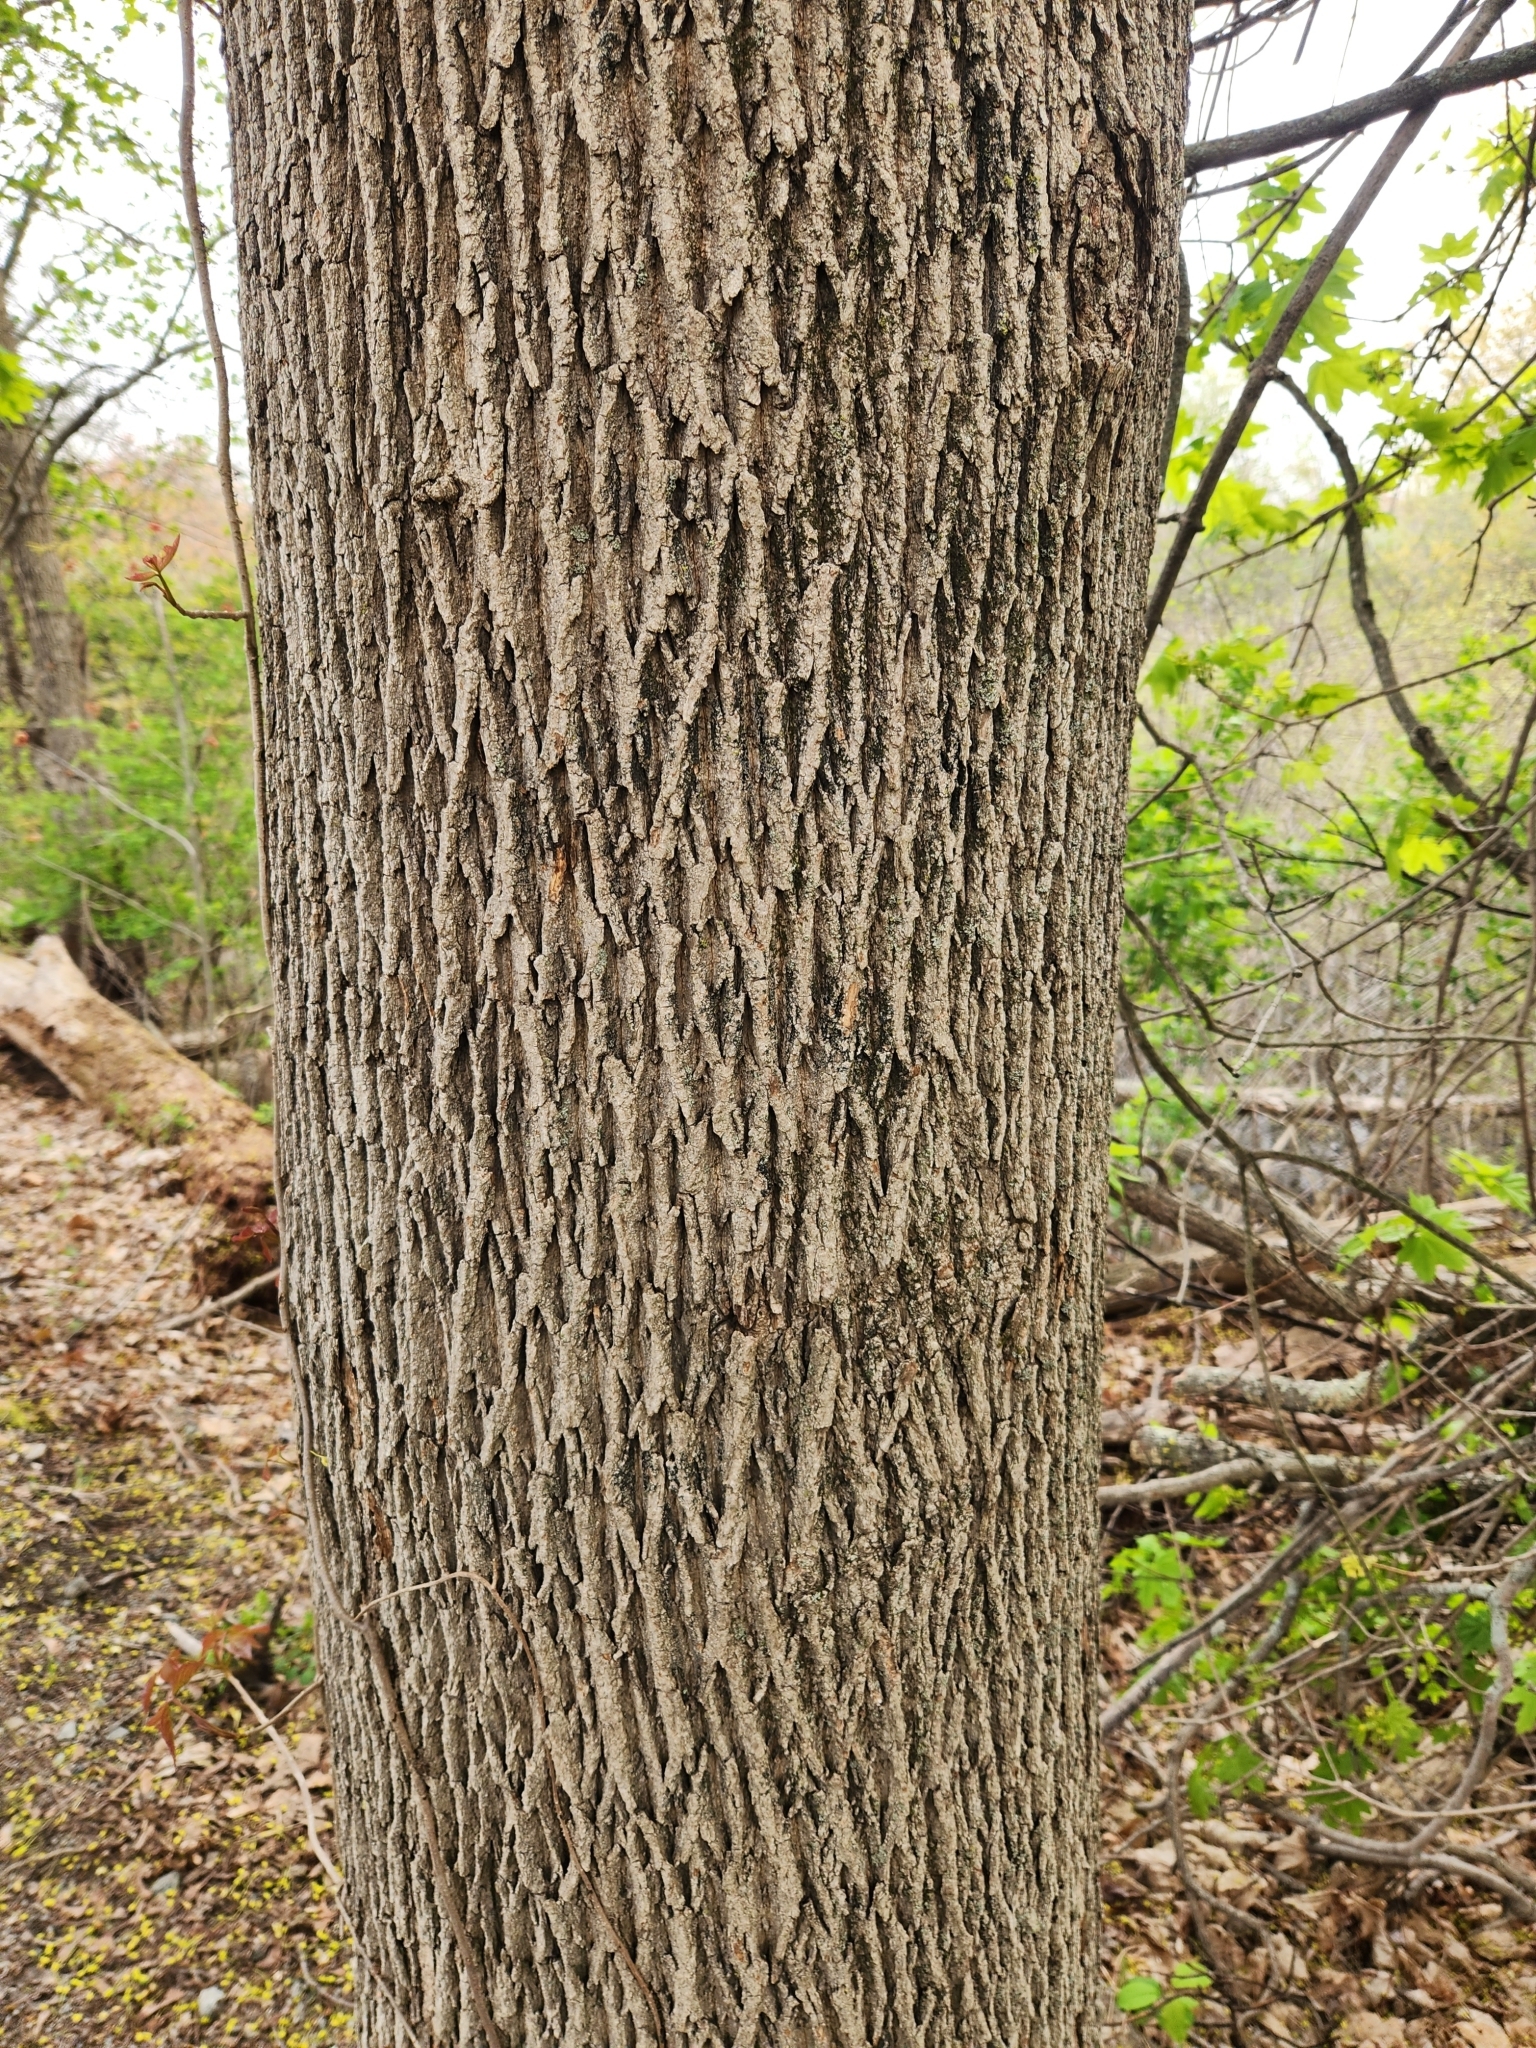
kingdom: Plantae
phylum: Tracheophyta
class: Magnoliopsida
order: Sapindales
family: Sapindaceae
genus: Acer
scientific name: Acer platanoides
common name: Norway maple
